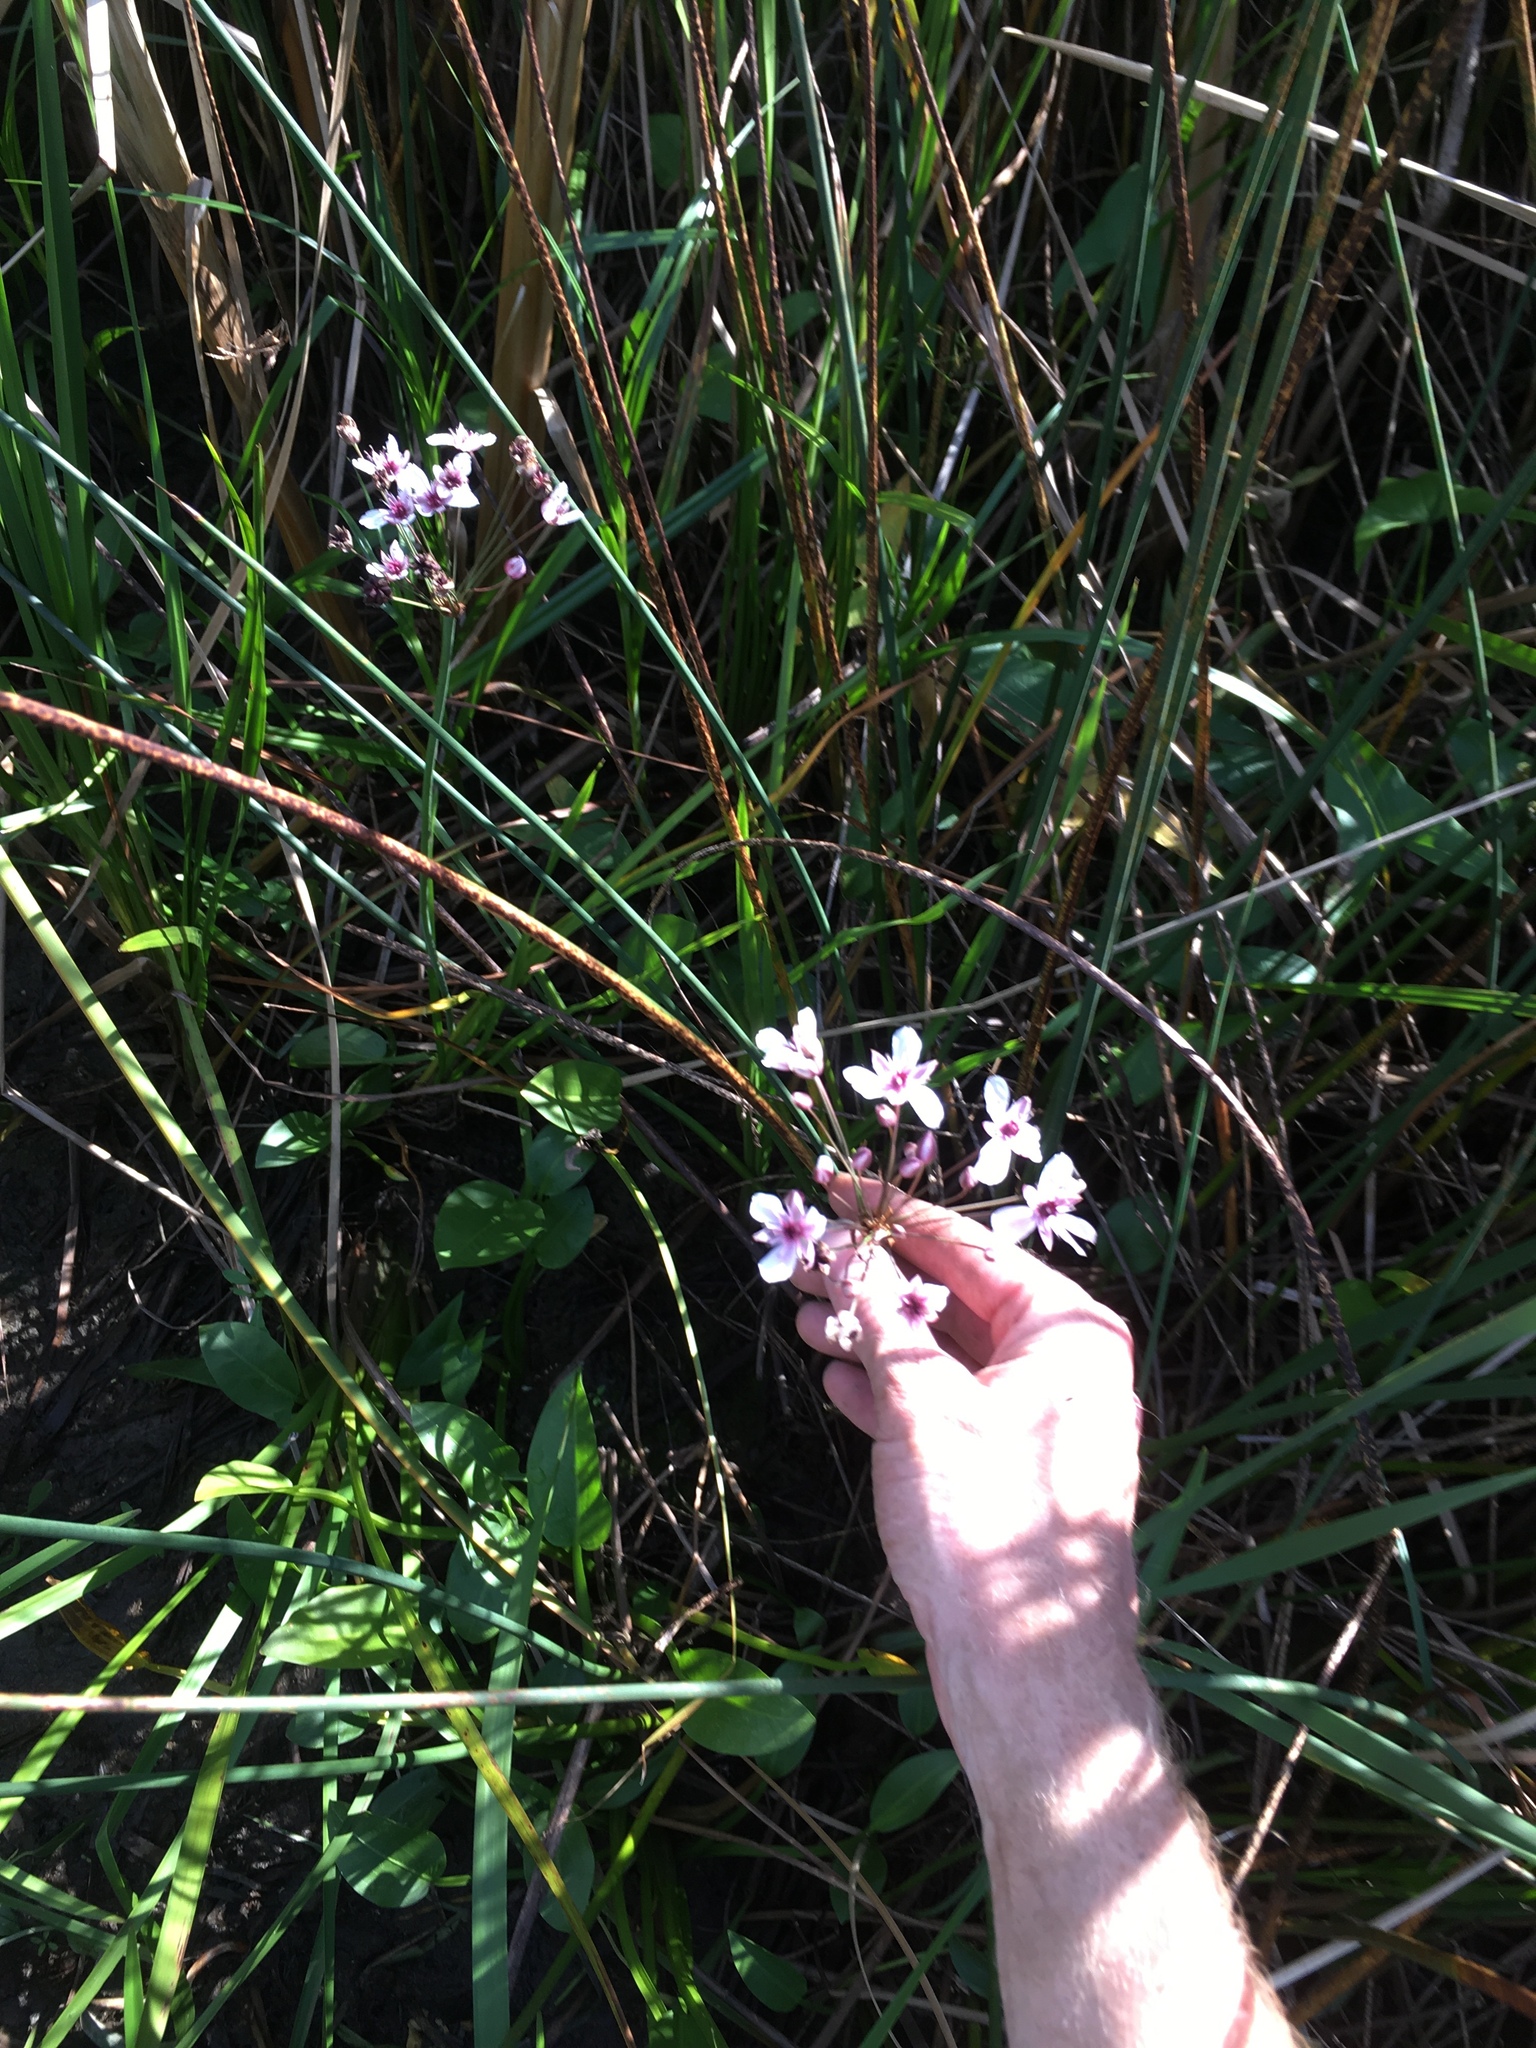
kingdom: Plantae
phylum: Tracheophyta
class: Liliopsida
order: Alismatales
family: Butomaceae
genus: Butomus
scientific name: Butomus umbellatus
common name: Flowering-rush
